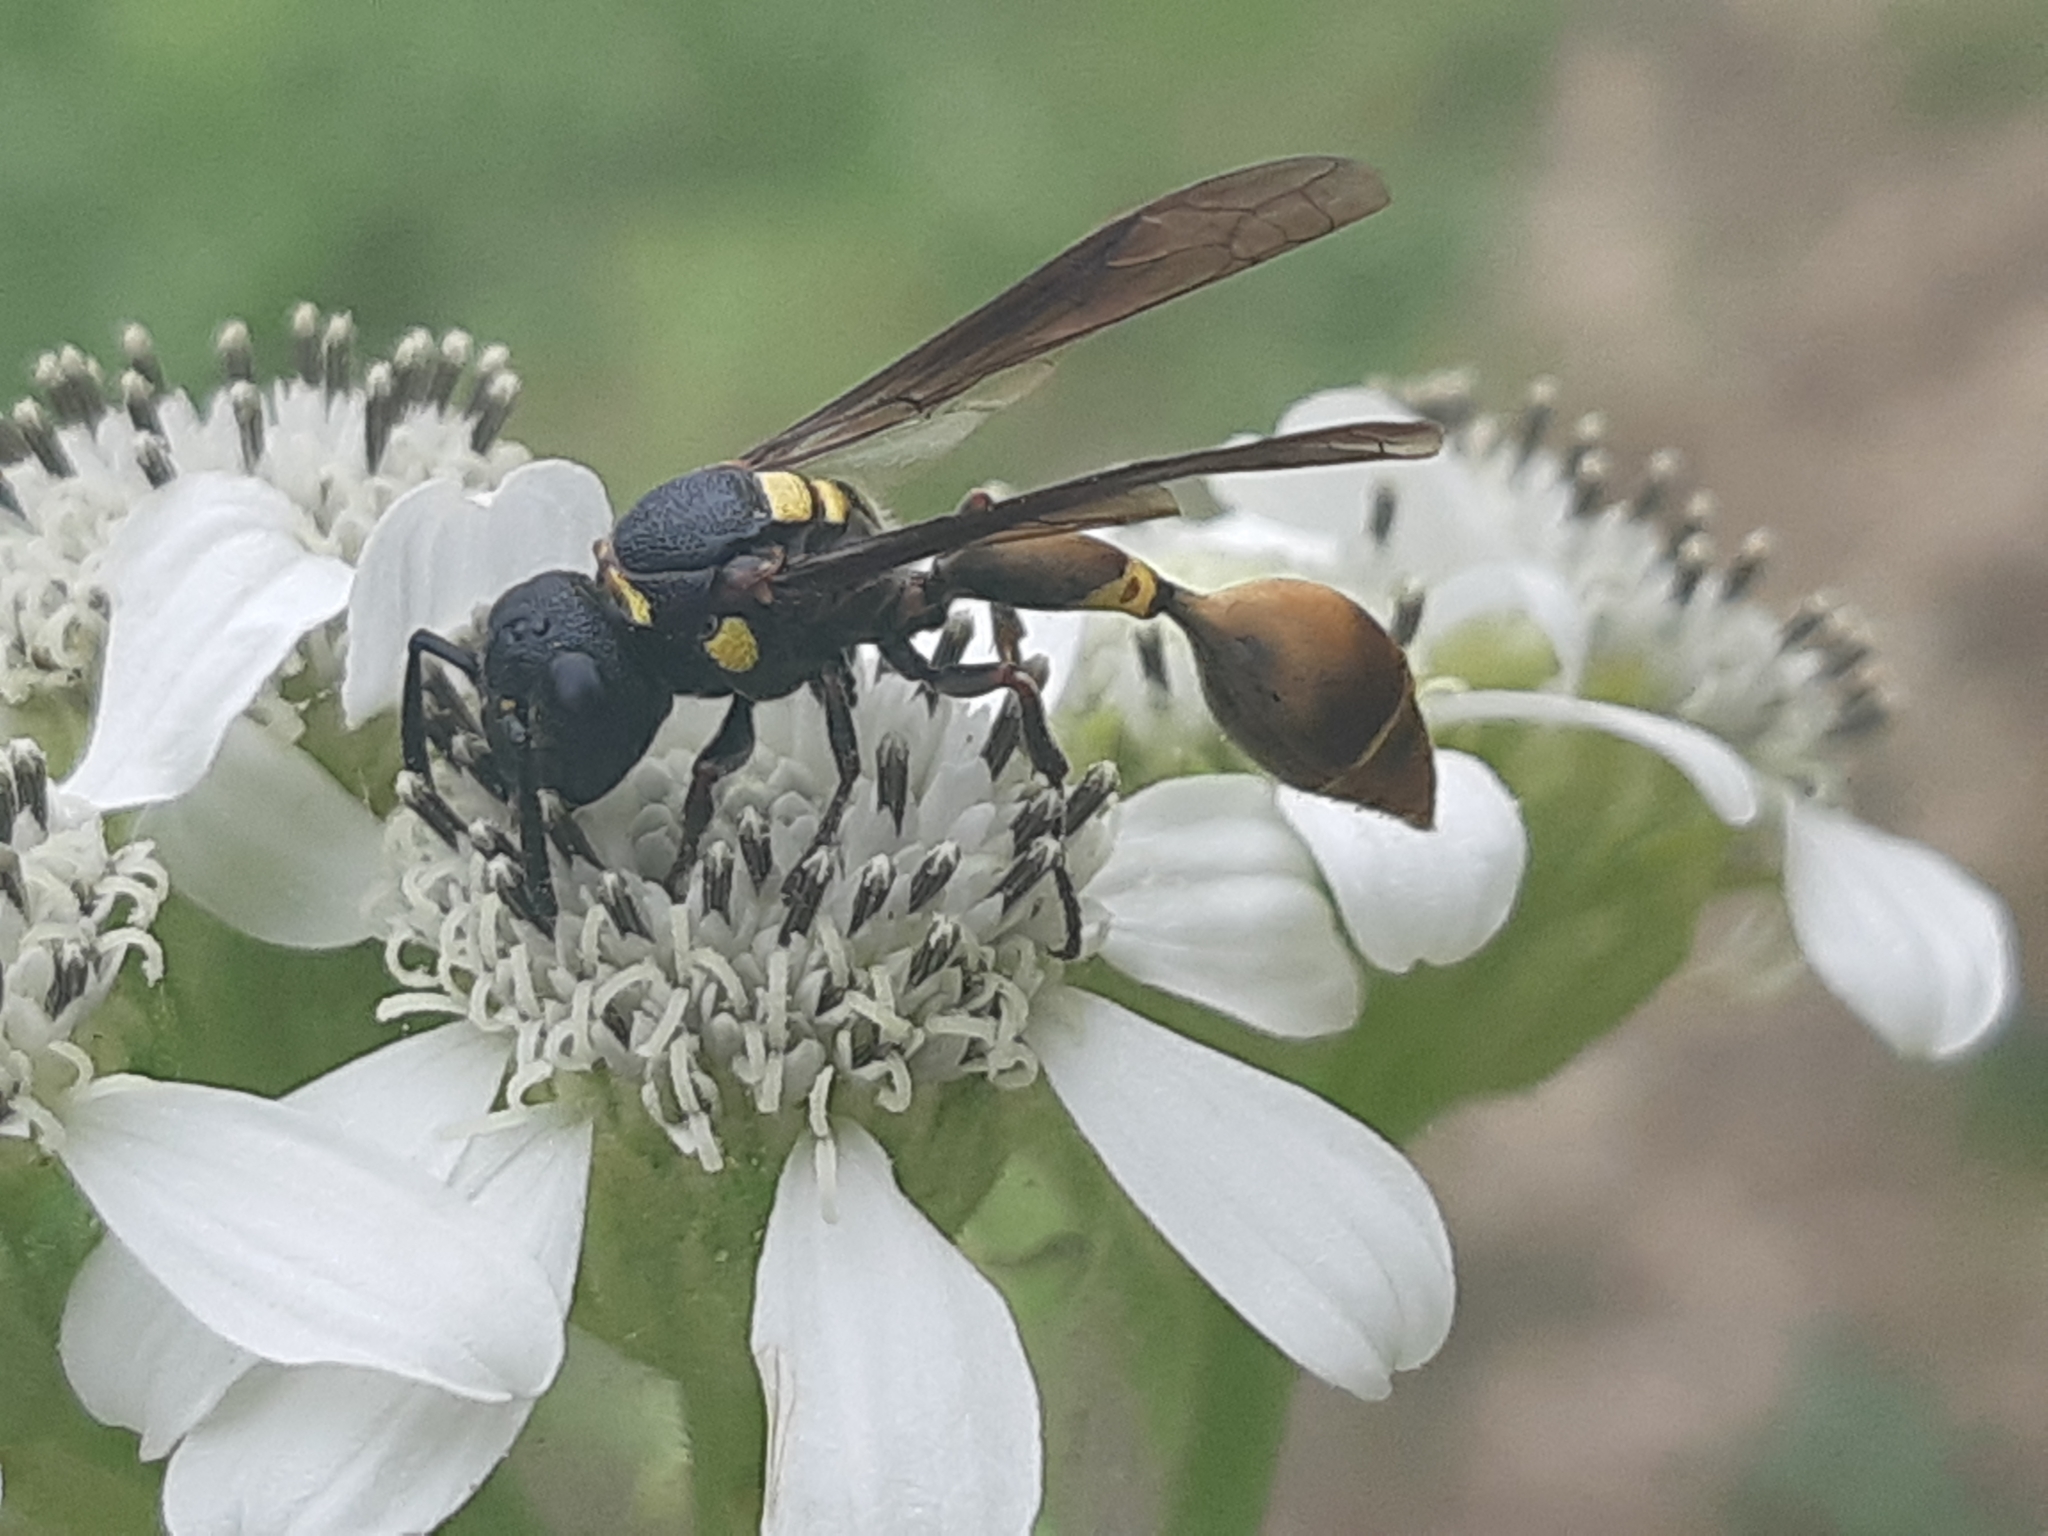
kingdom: Animalia
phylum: Arthropoda
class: Insecta
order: Hymenoptera
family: Eumenidae
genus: Zethus
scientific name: Zethus westwoodi
